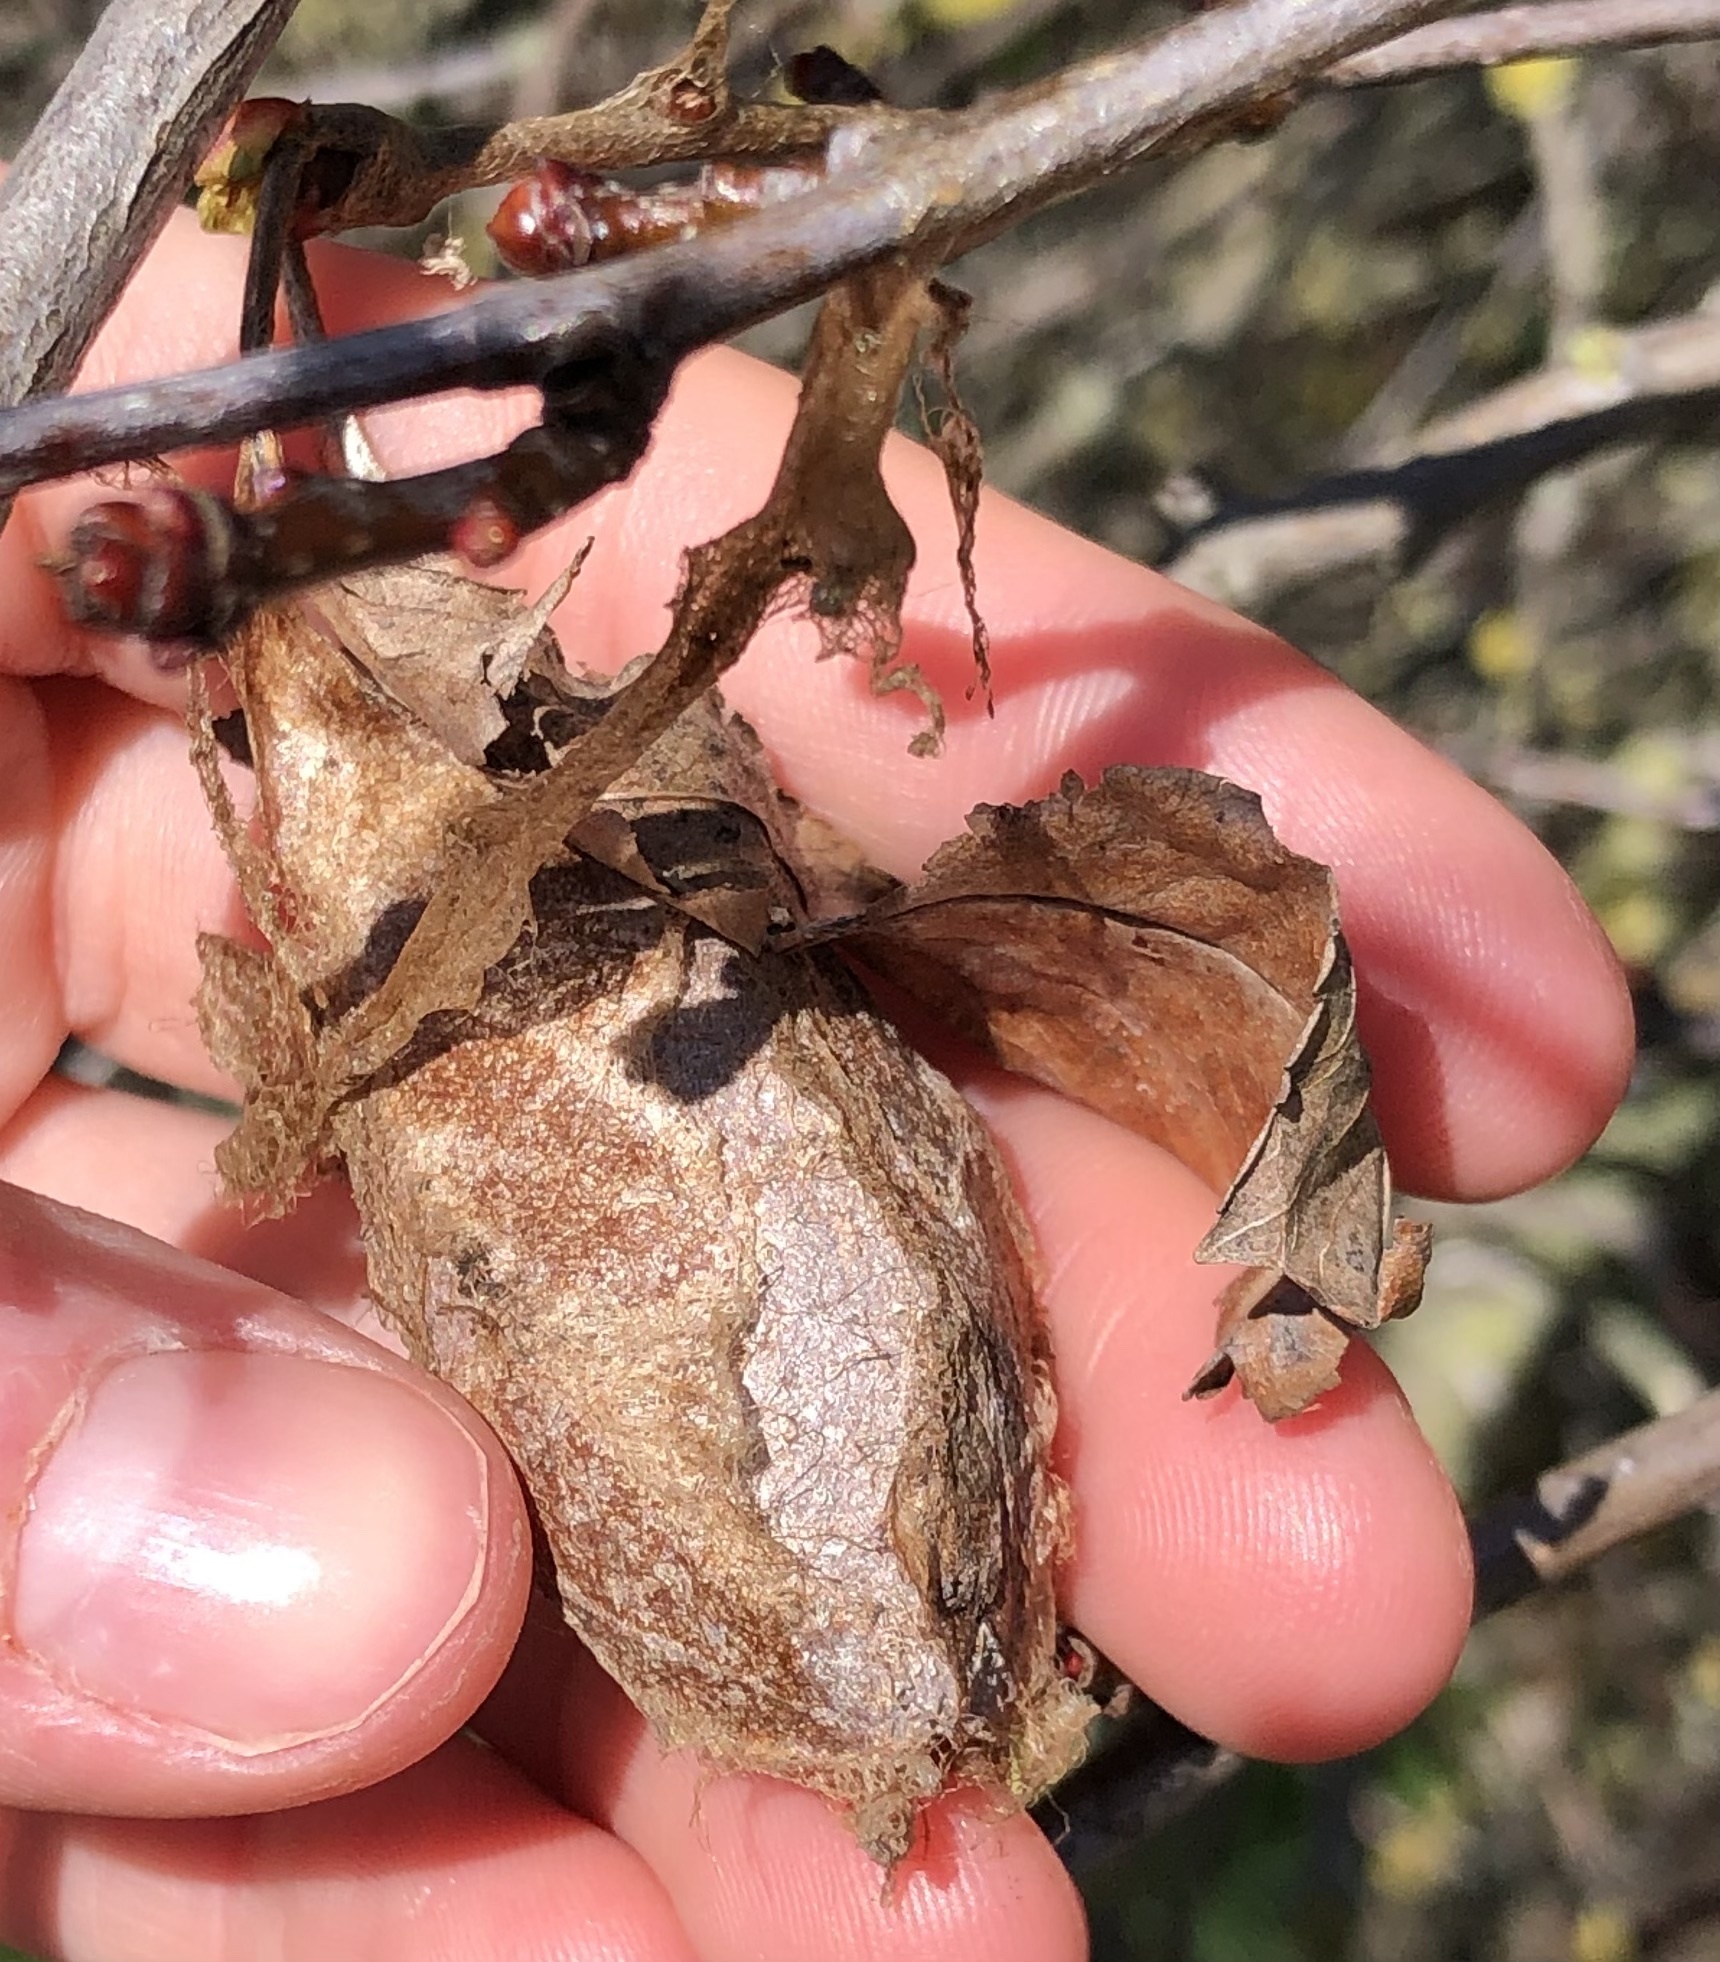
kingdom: Animalia
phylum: Arthropoda
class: Insecta
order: Lepidoptera
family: Saturniidae
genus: Antheraea
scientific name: Antheraea polyphemus
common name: Polyphemus moth
